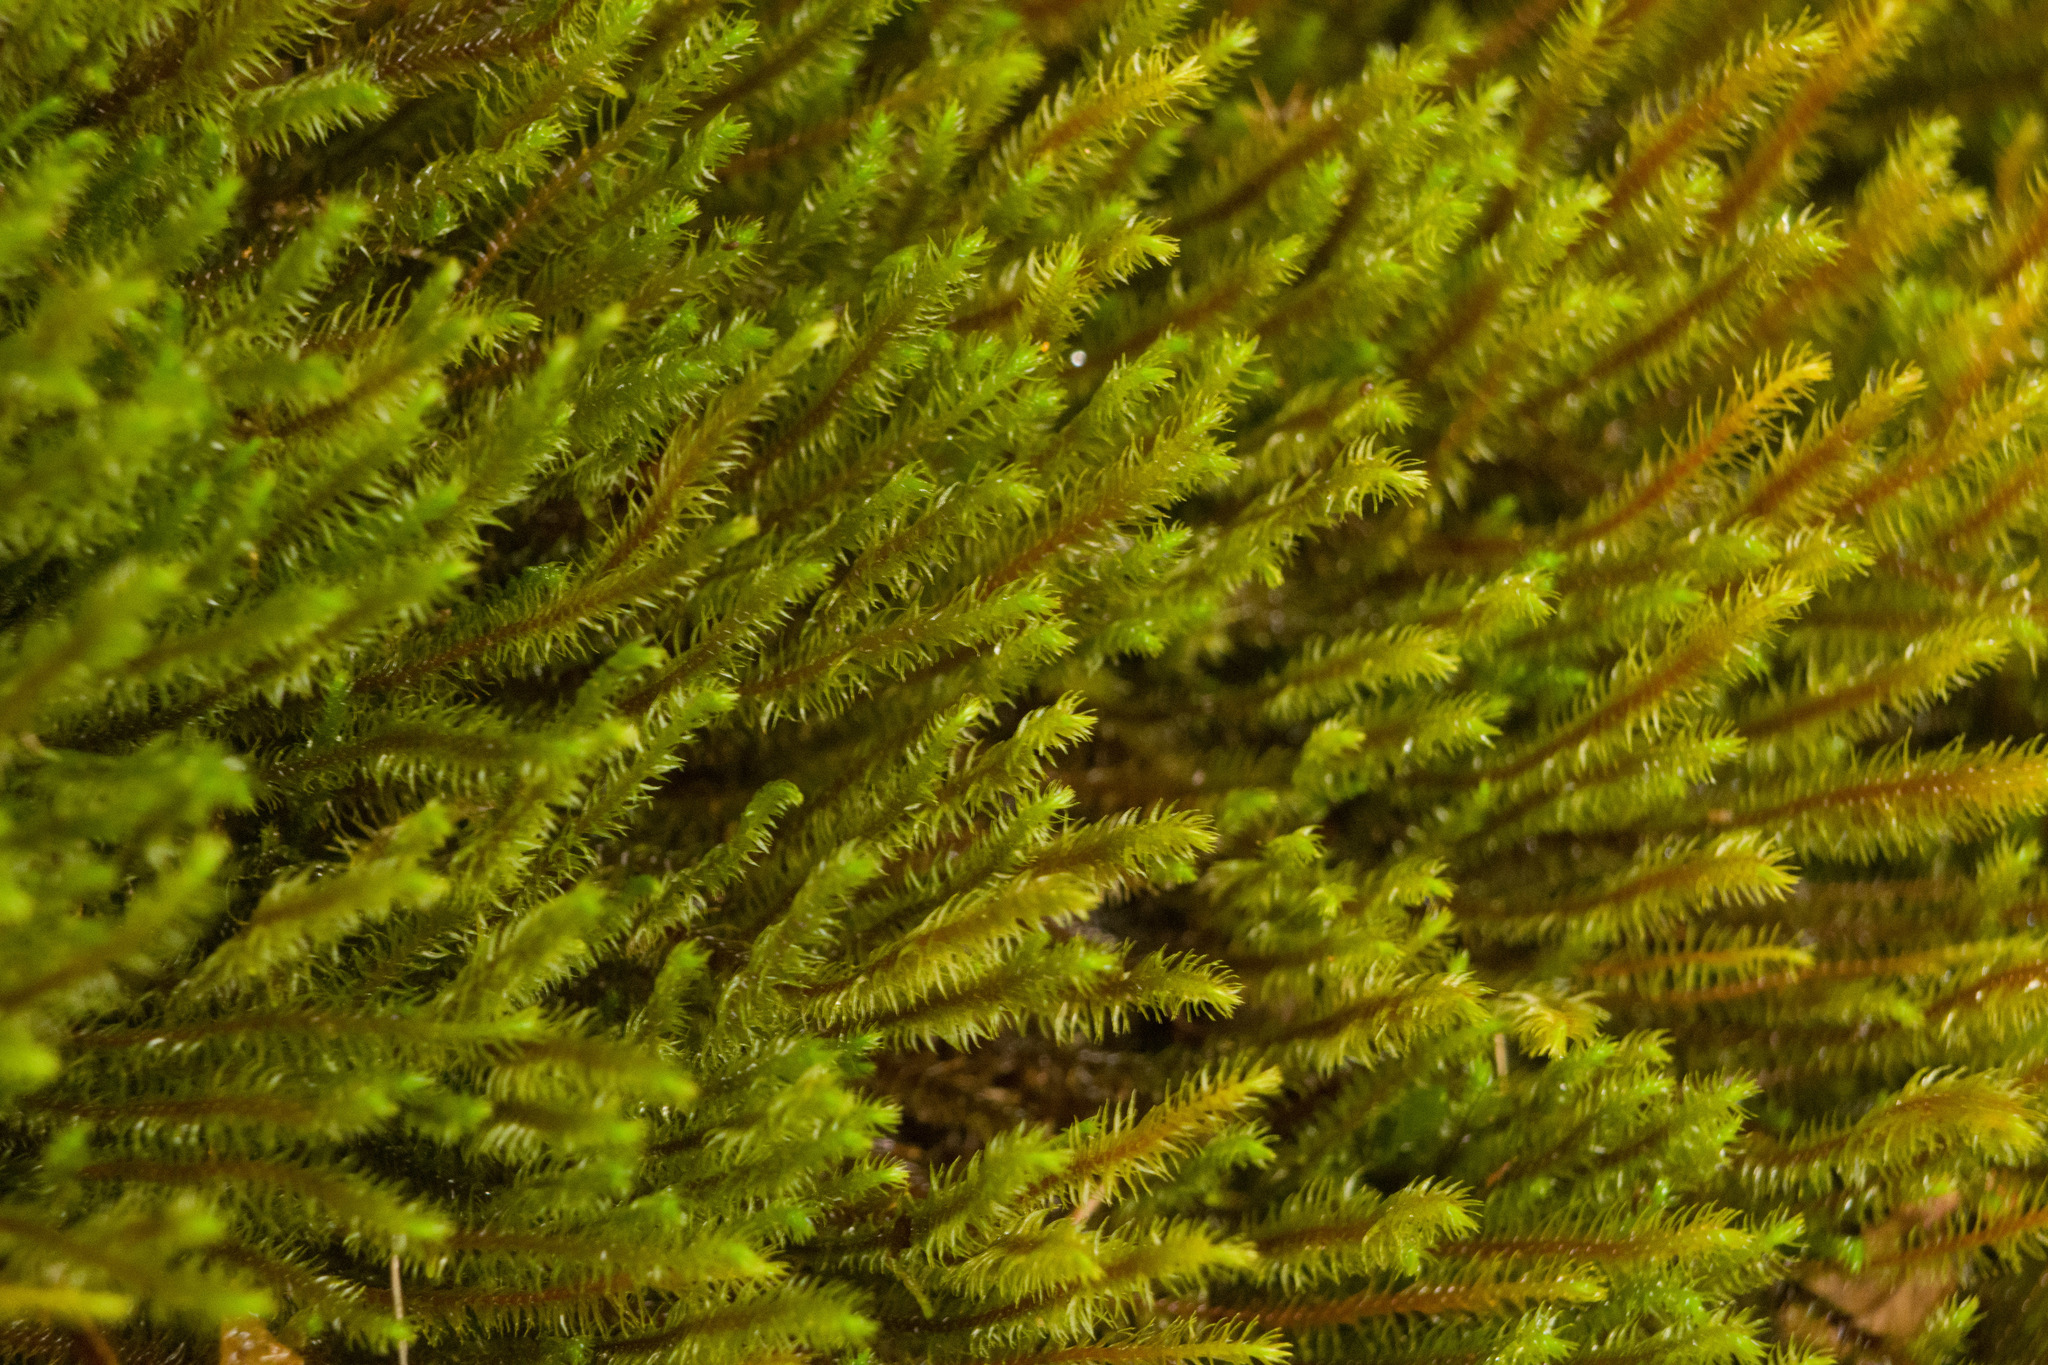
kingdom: Plantae
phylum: Marchantiophyta
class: Jungermanniopsida
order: Jungermanniales
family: Herbertaceae
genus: Herbertus
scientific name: Herbertus aduncus
